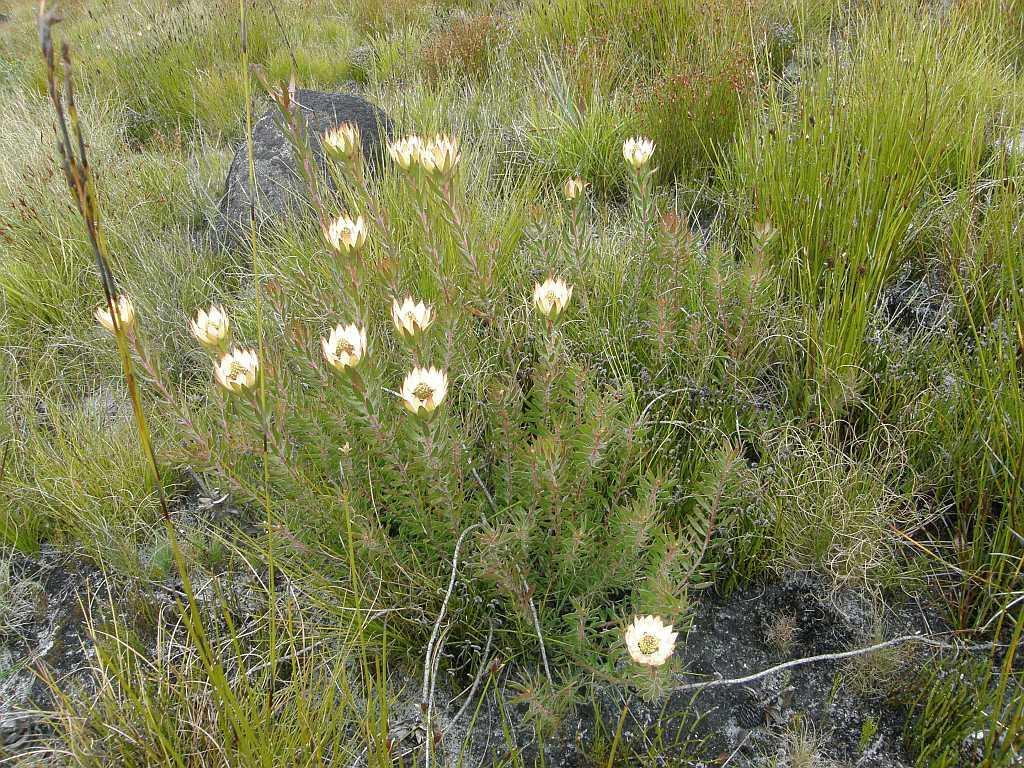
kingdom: Plantae
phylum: Tracheophyta
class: Magnoliopsida
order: Proteales
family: Proteaceae
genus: Leucadendron
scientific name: Leucadendron spissifolium
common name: Spear-leaf conebush
